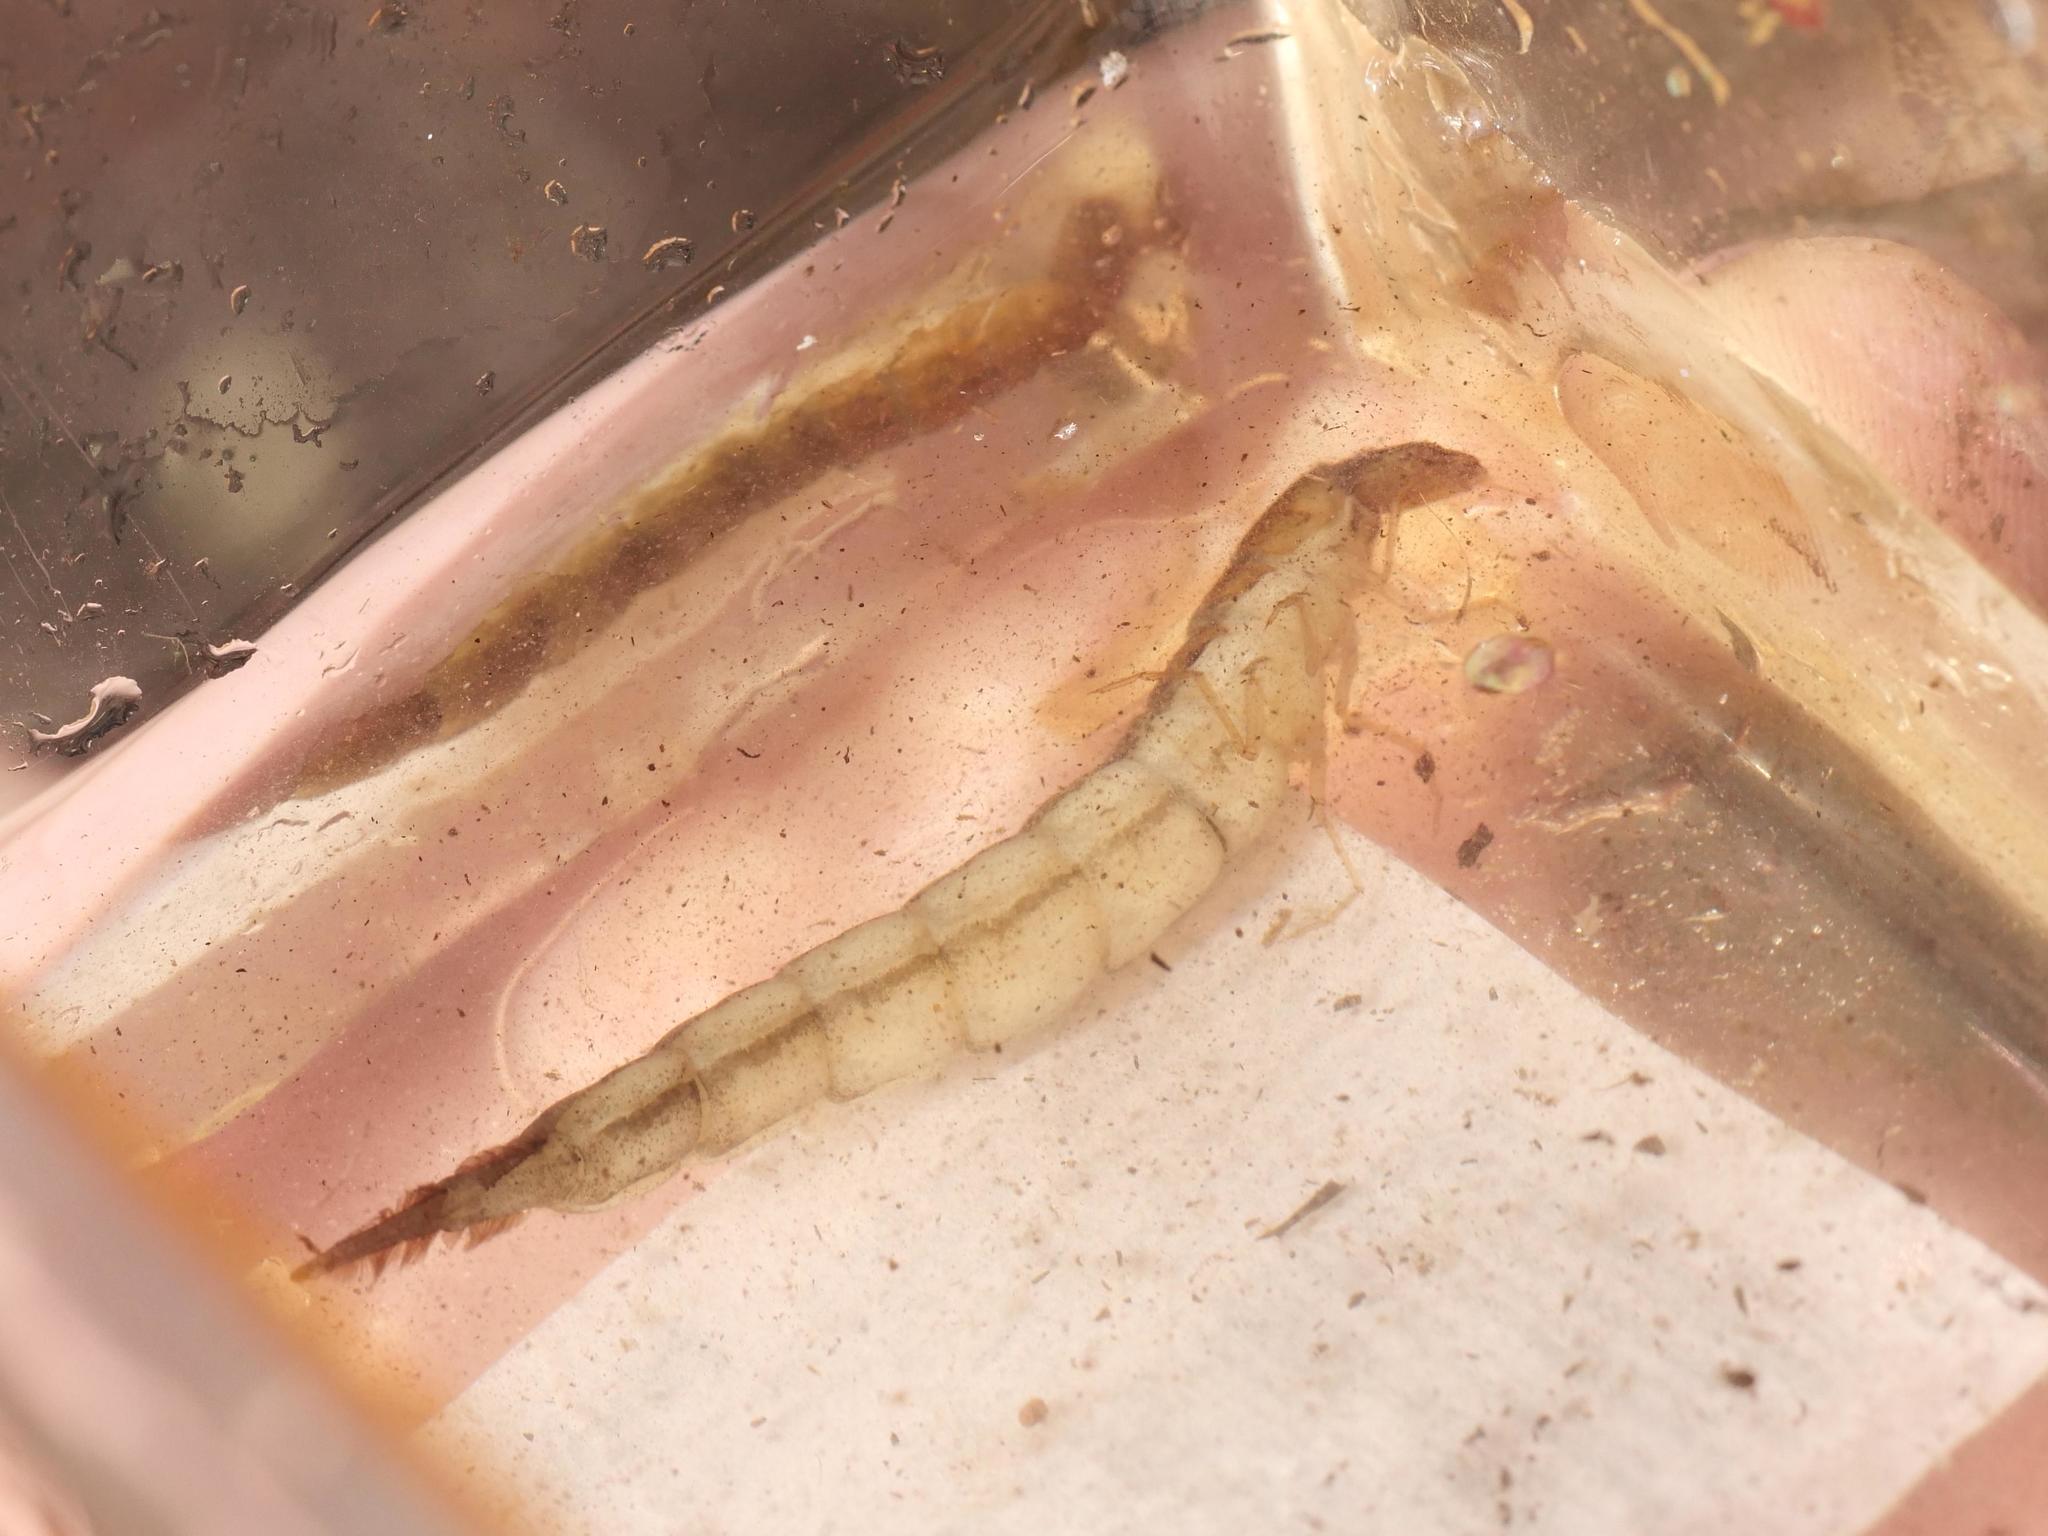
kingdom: Animalia
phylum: Arthropoda
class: Insecta
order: Coleoptera
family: Dytiscidae
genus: Cybister
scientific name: Cybister lateralimarginalis
